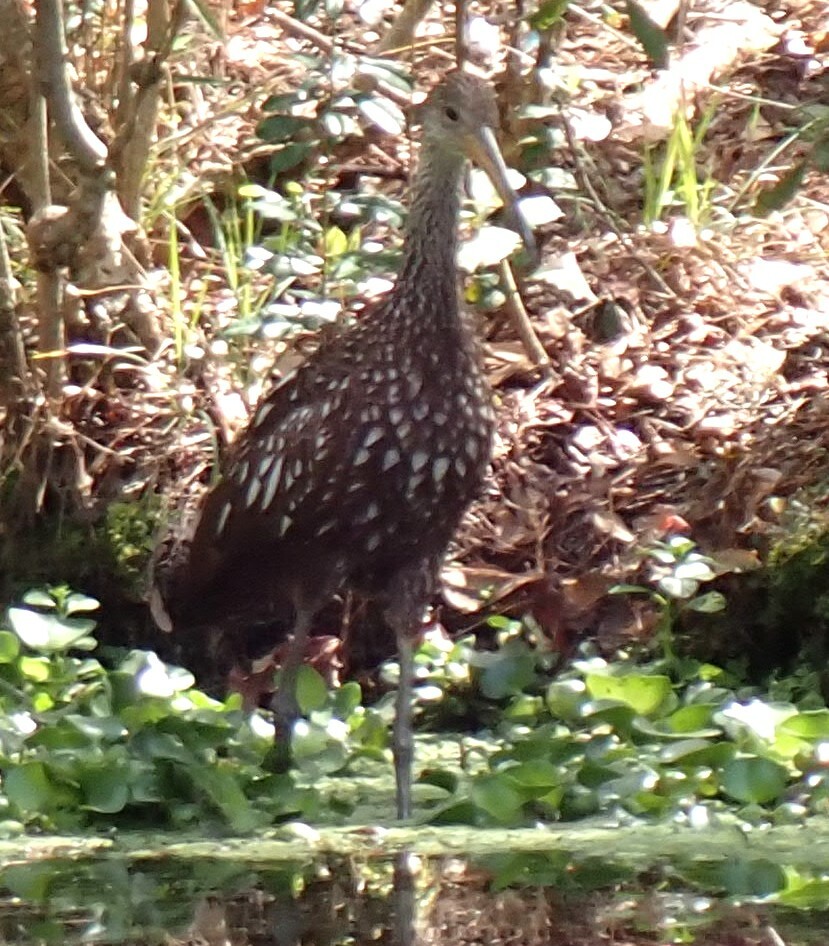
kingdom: Animalia
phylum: Chordata
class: Aves
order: Gruiformes
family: Aramidae
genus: Aramus
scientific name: Aramus guarauna
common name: Limpkin
